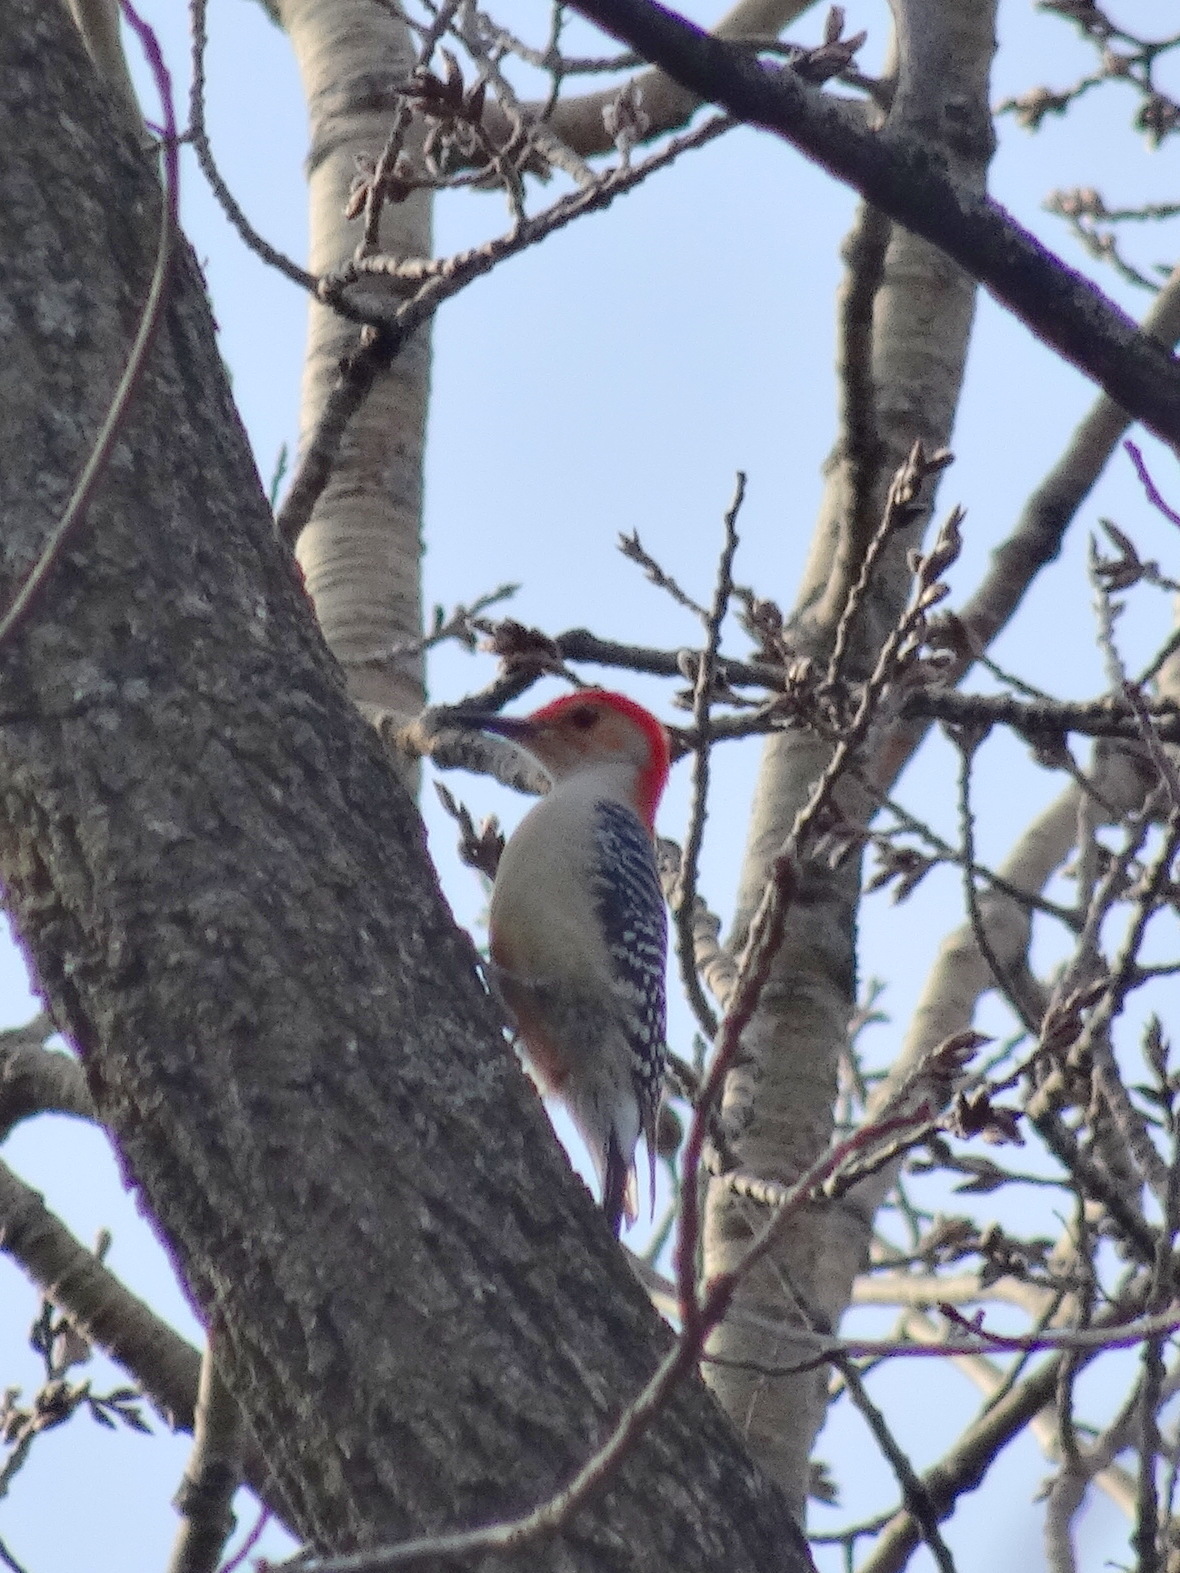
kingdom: Animalia
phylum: Chordata
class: Aves
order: Piciformes
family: Picidae
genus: Melanerpes
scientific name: Melanerpes carolinus
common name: Red-bellied woodpecker
